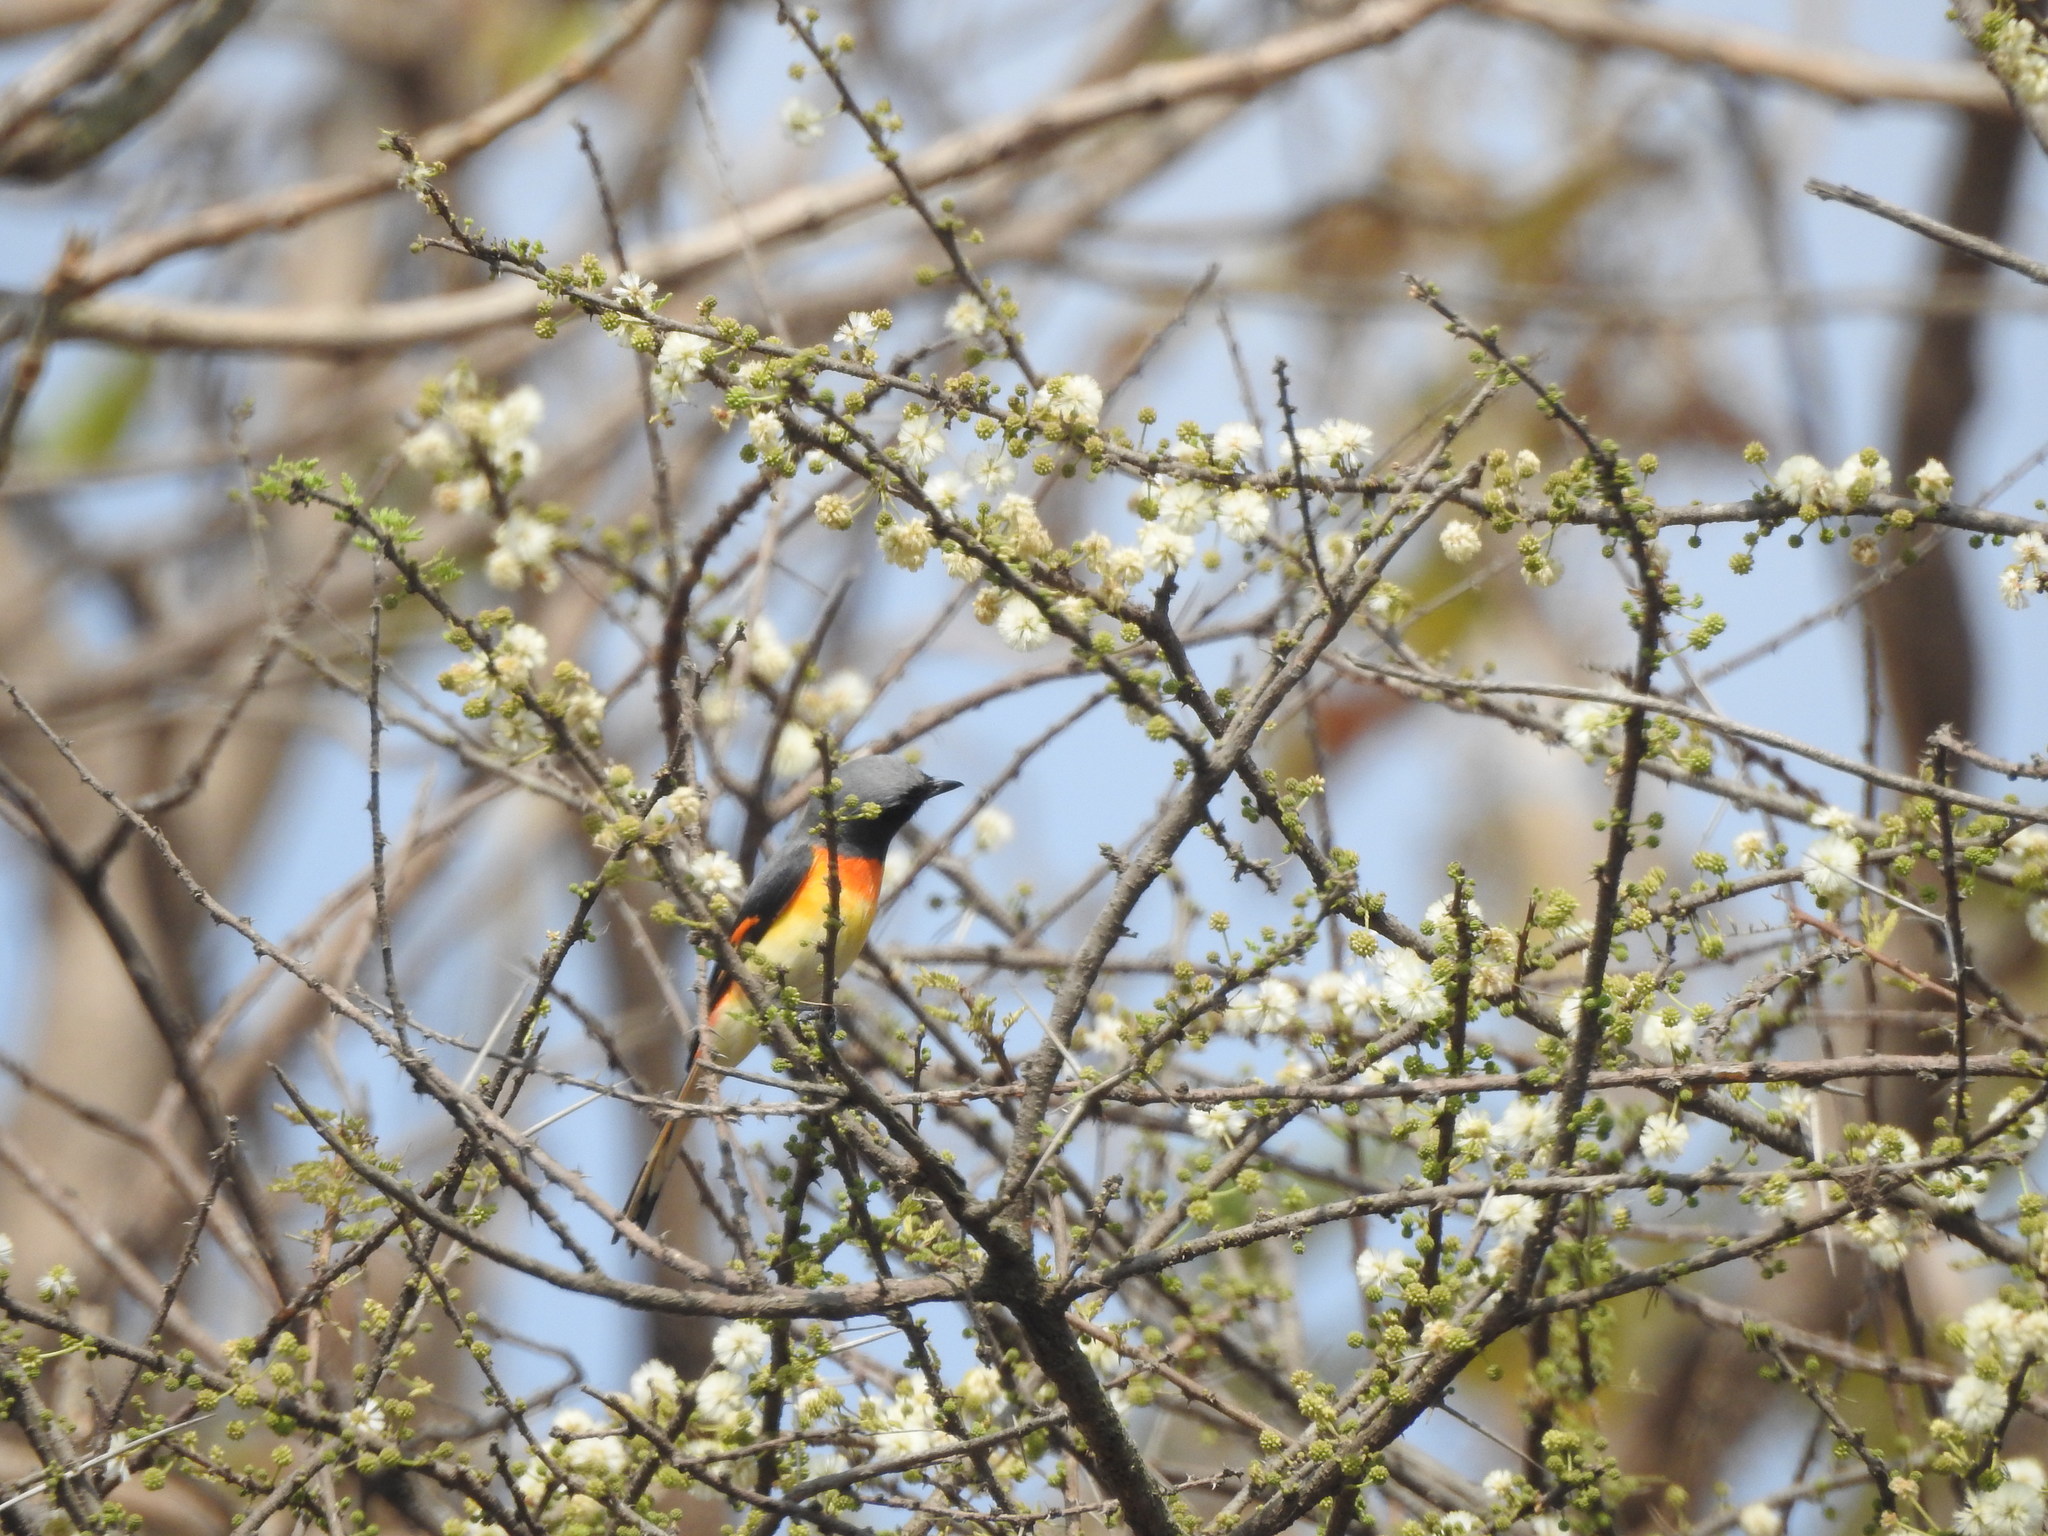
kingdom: Animalia
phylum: Chordata
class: Aves
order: Passeriformes
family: Campephagidae
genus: Pericrocotus
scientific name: Pericrocotus cinnamomeus
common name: Small minivet
